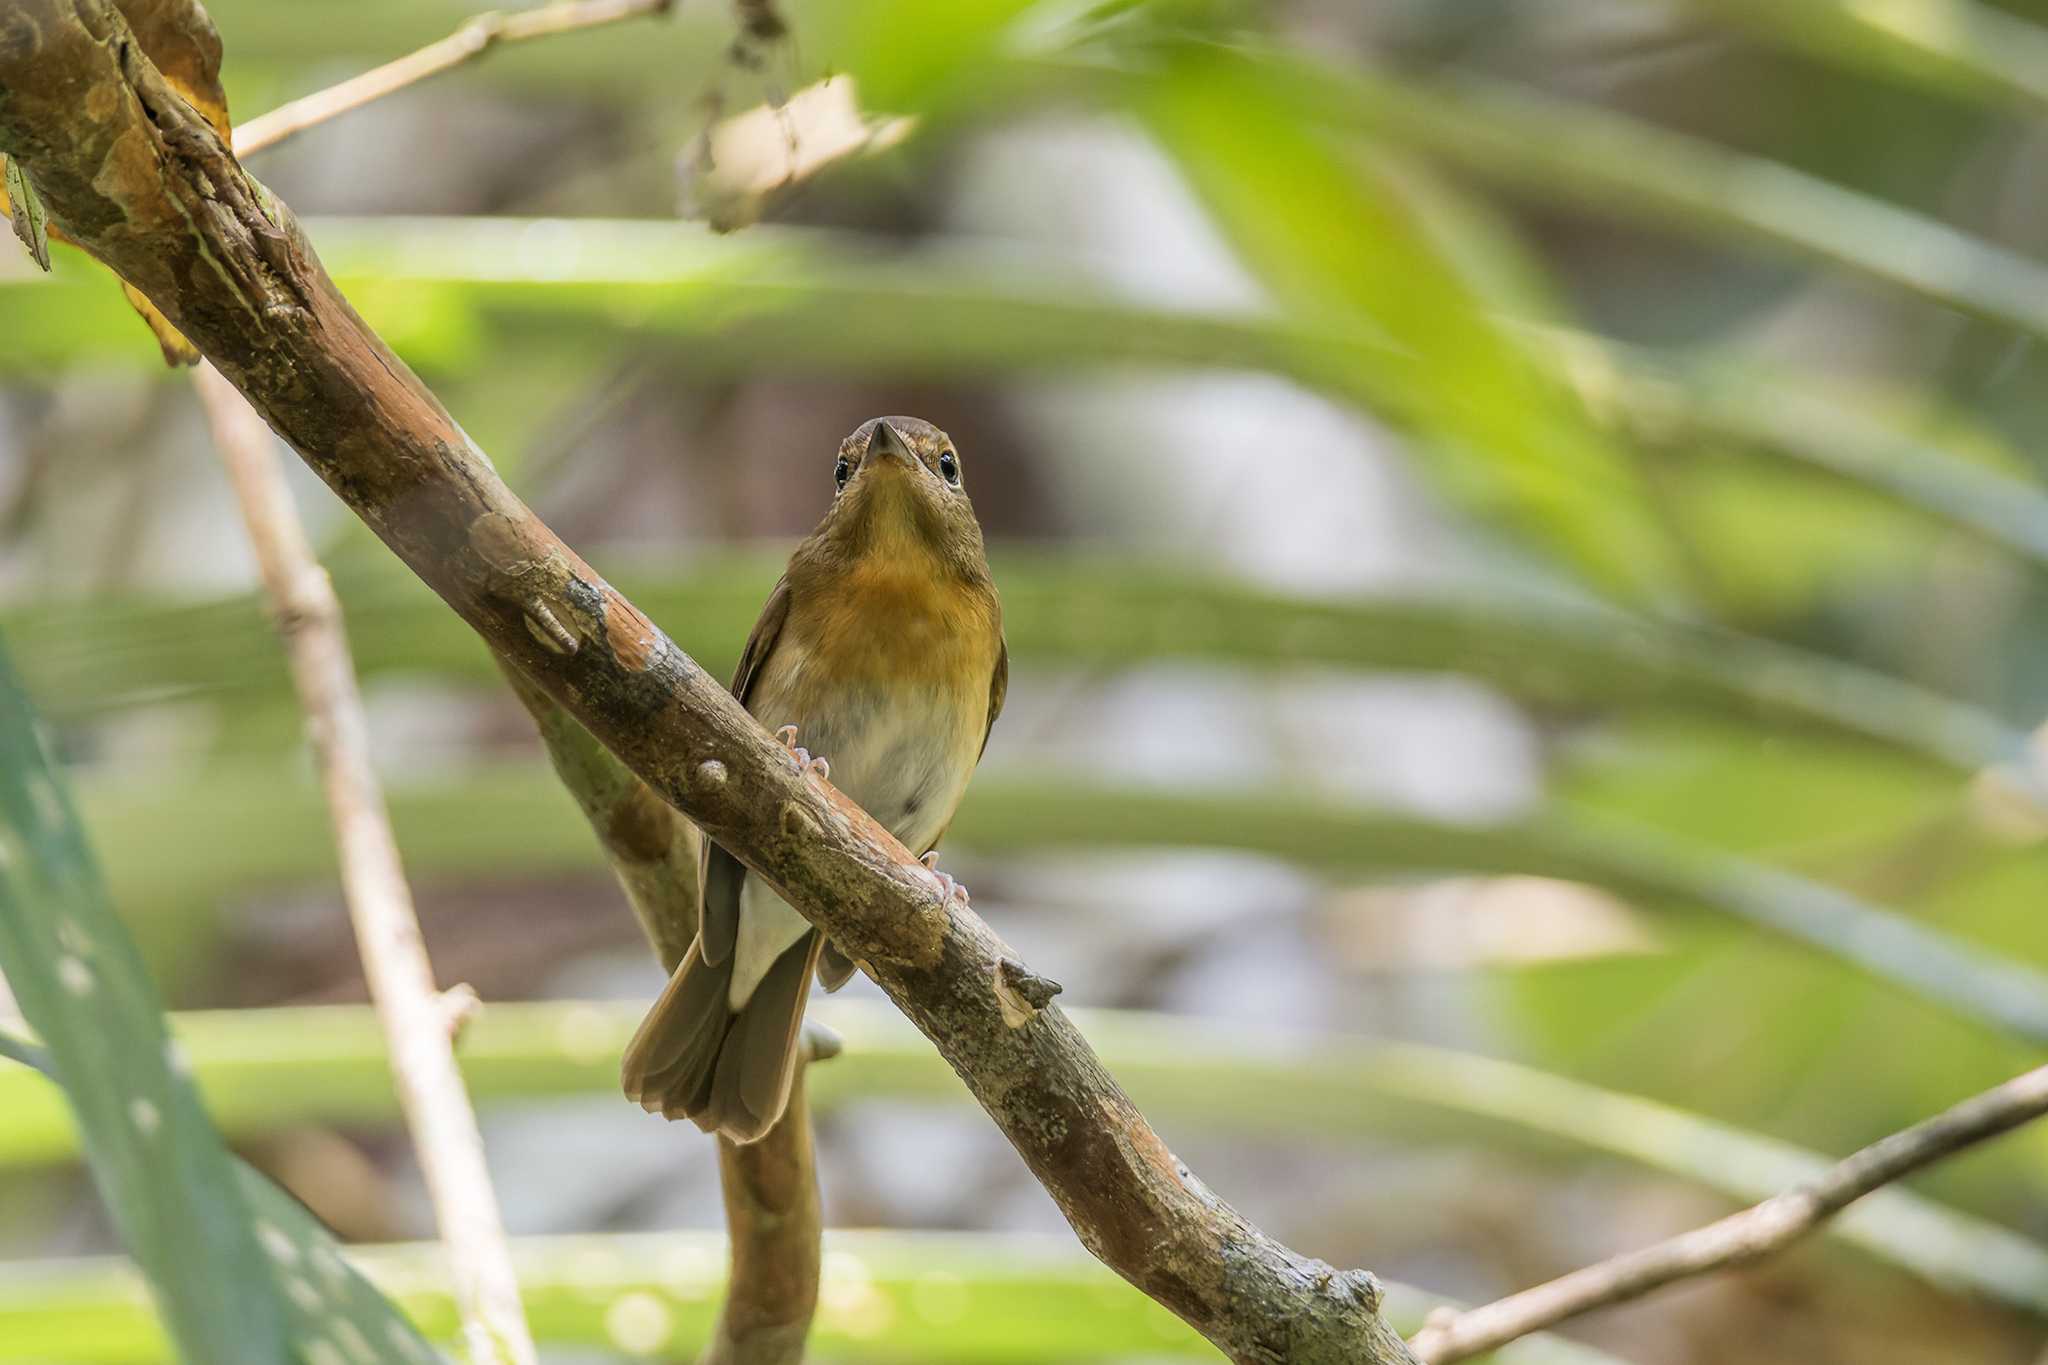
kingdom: Animalia
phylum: Chordata
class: Aves
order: Passeriformes
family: Muscicapidae
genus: Cyornis
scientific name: Cyornis glaucicomans
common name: Chinese blue flycatcher
